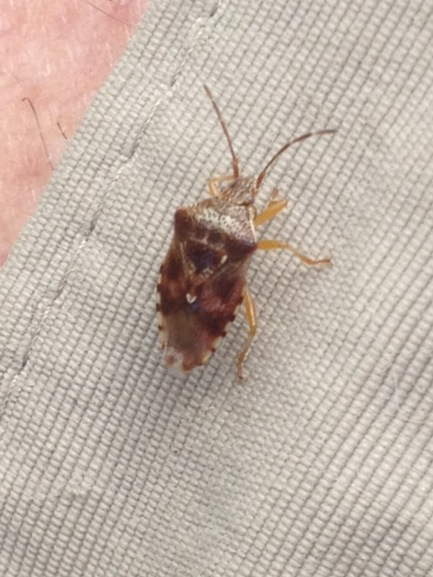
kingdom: Animalia
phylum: Arthropoda
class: Insecta
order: Hemiptera
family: Acanthosomatidae
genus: Elasmucha
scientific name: Elasmucha lateralis
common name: Shield bug
